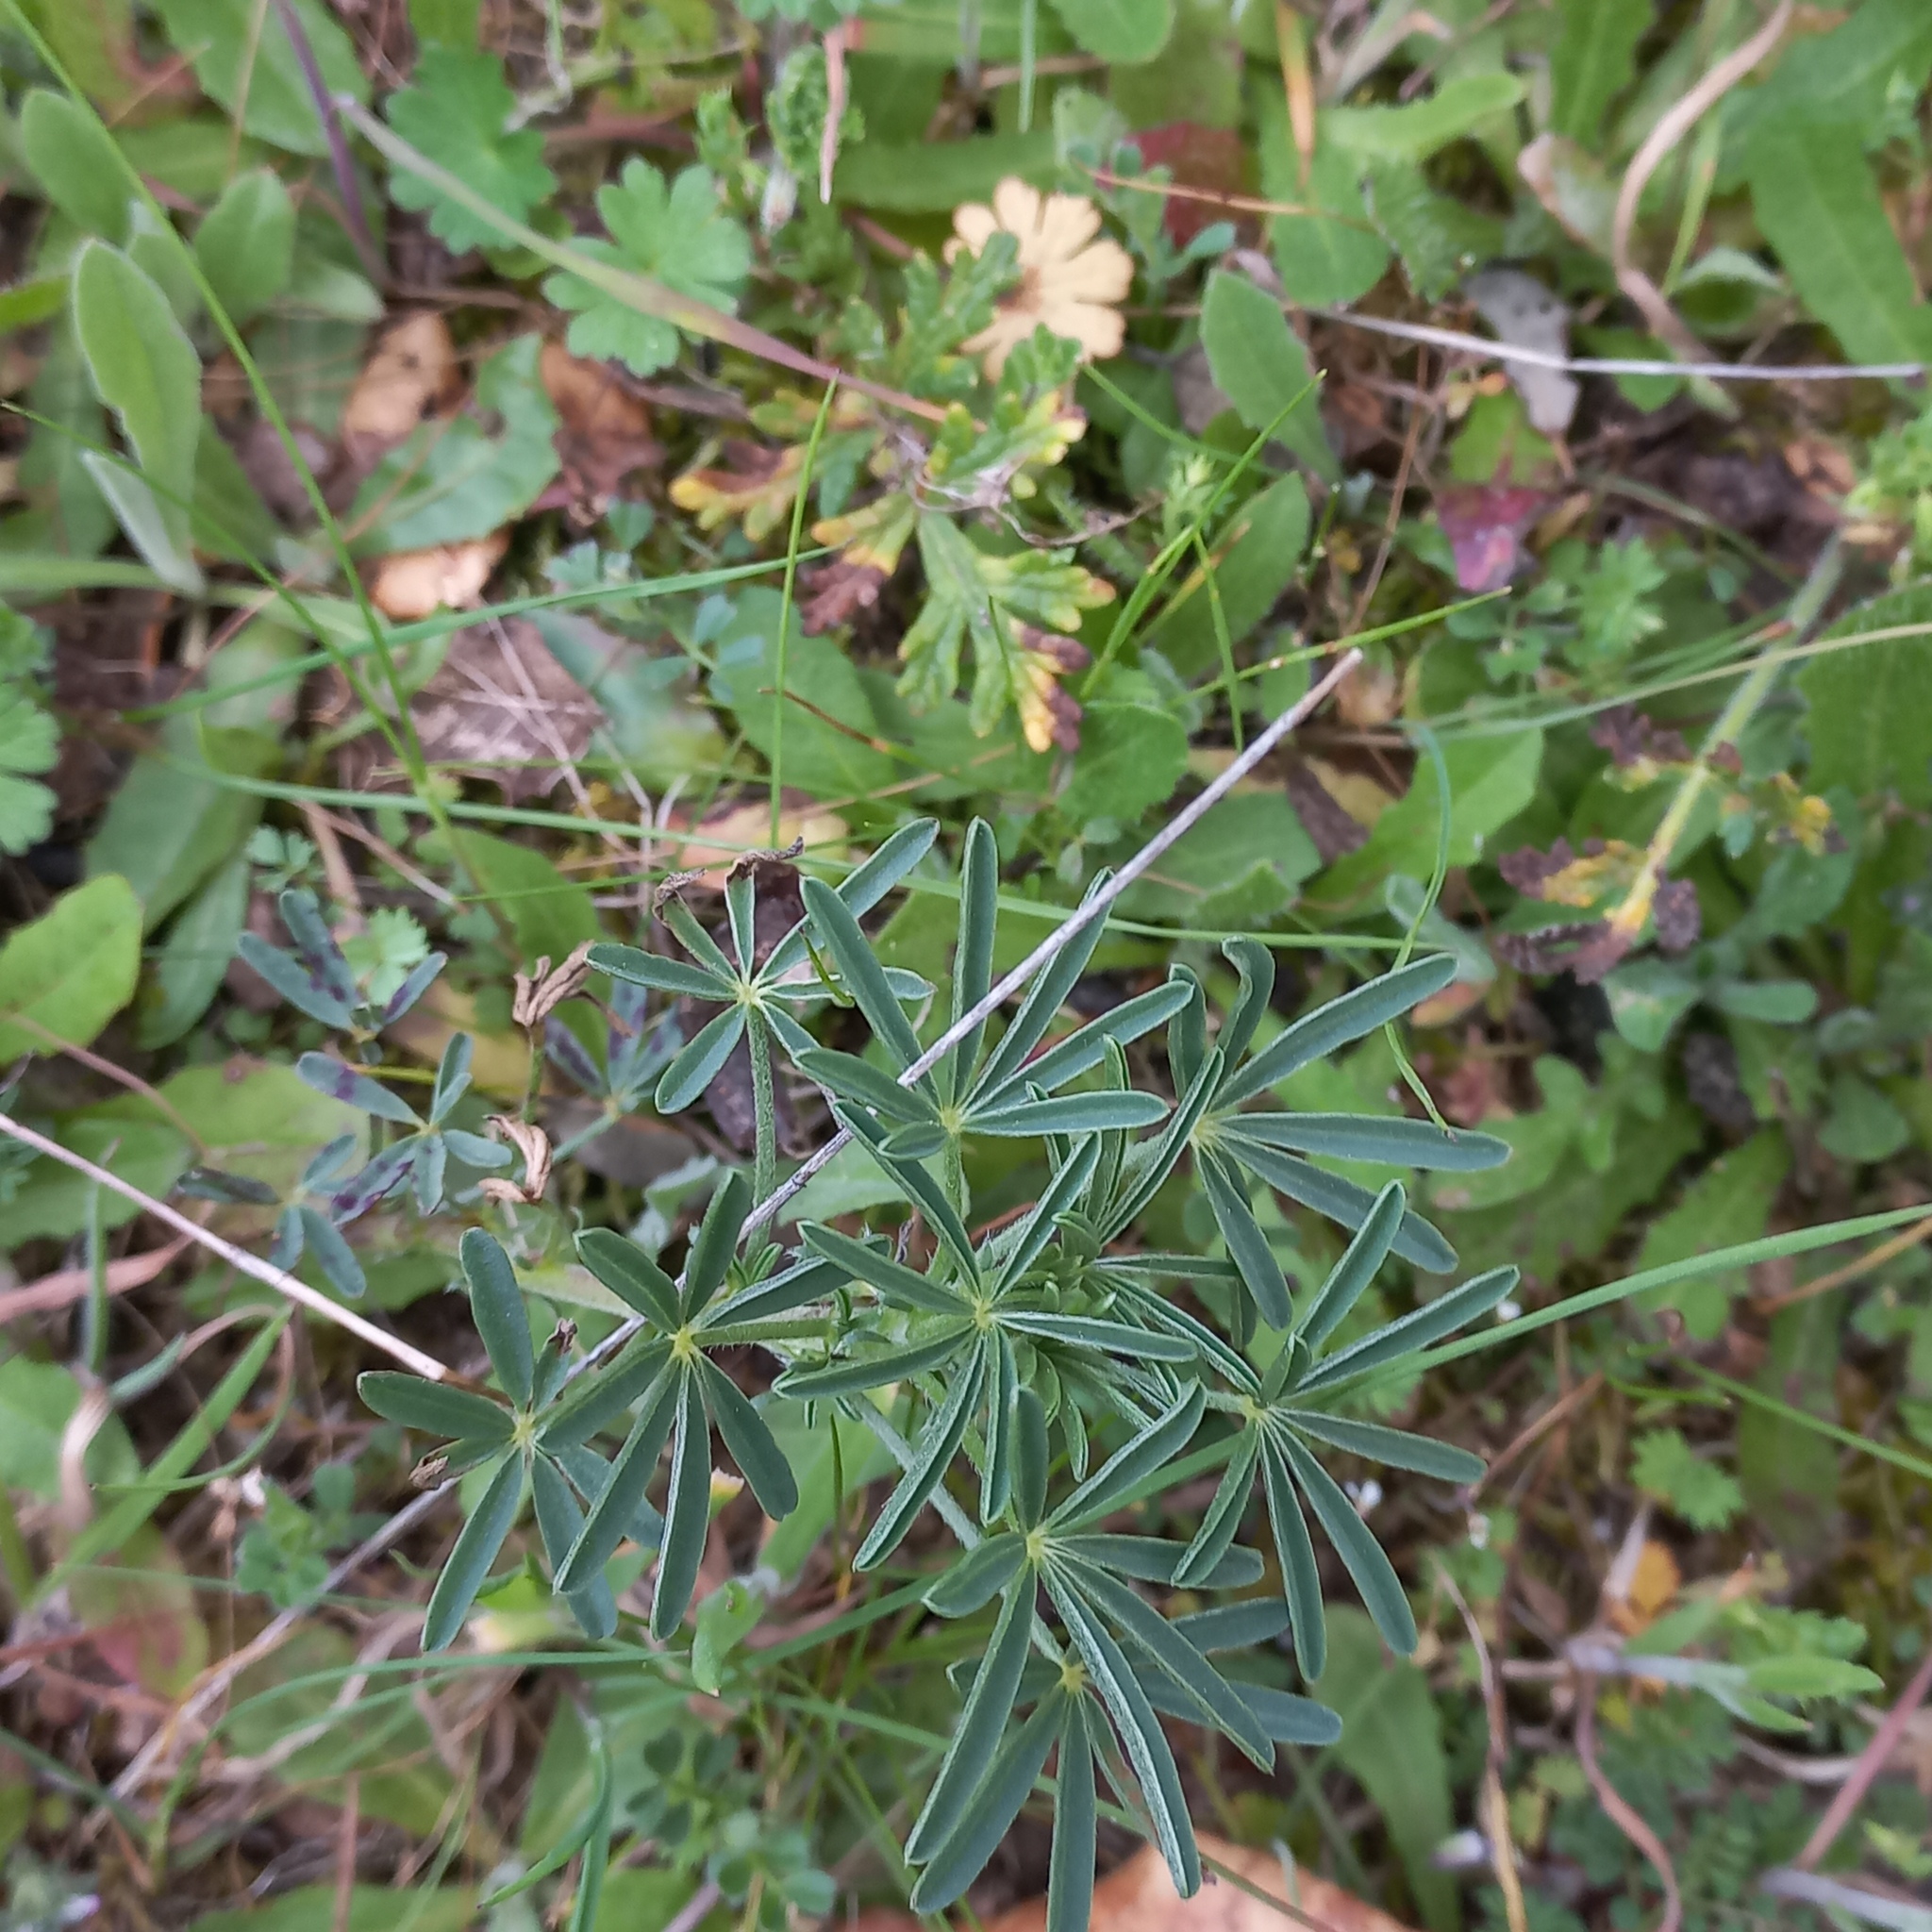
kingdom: Plantae
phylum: Tracheophyta
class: Magnoliopsida
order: Fabales
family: Fabaceae
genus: Lupinus
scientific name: Lupinus angustifolius
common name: Narrow-leaved lupin
